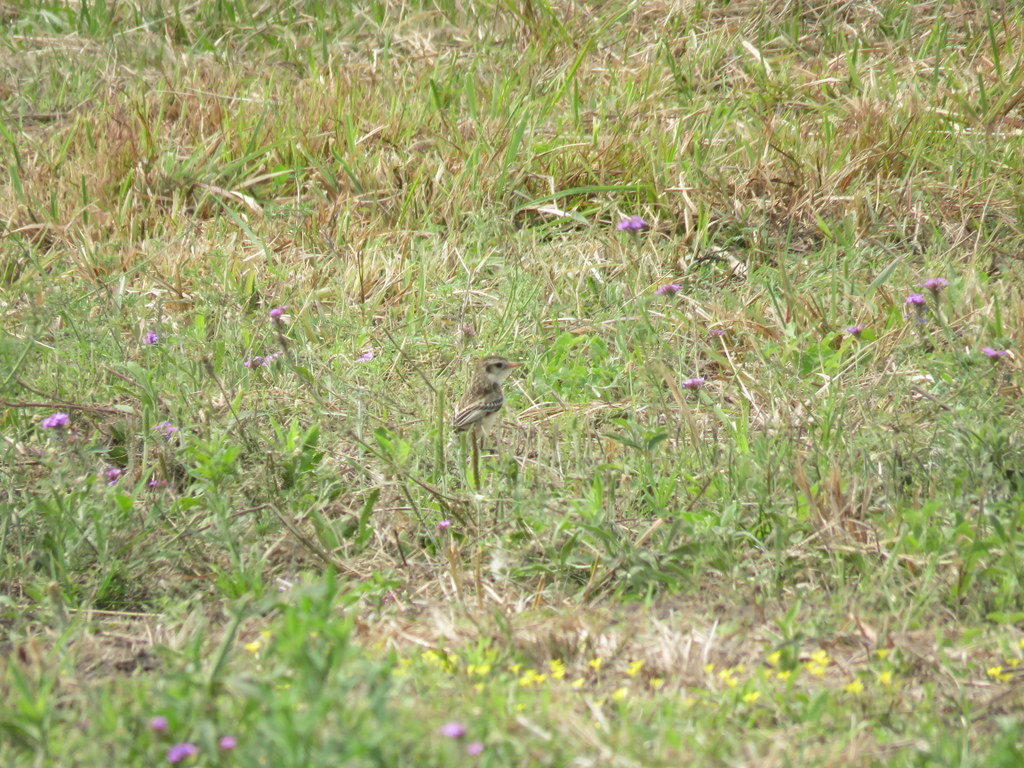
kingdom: Animalia
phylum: Chordata
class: Aves
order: Passeriformes
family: Tyrannidae
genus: Alectrurus
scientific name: Alectrurus risora
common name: Strange-tailed tyrant
